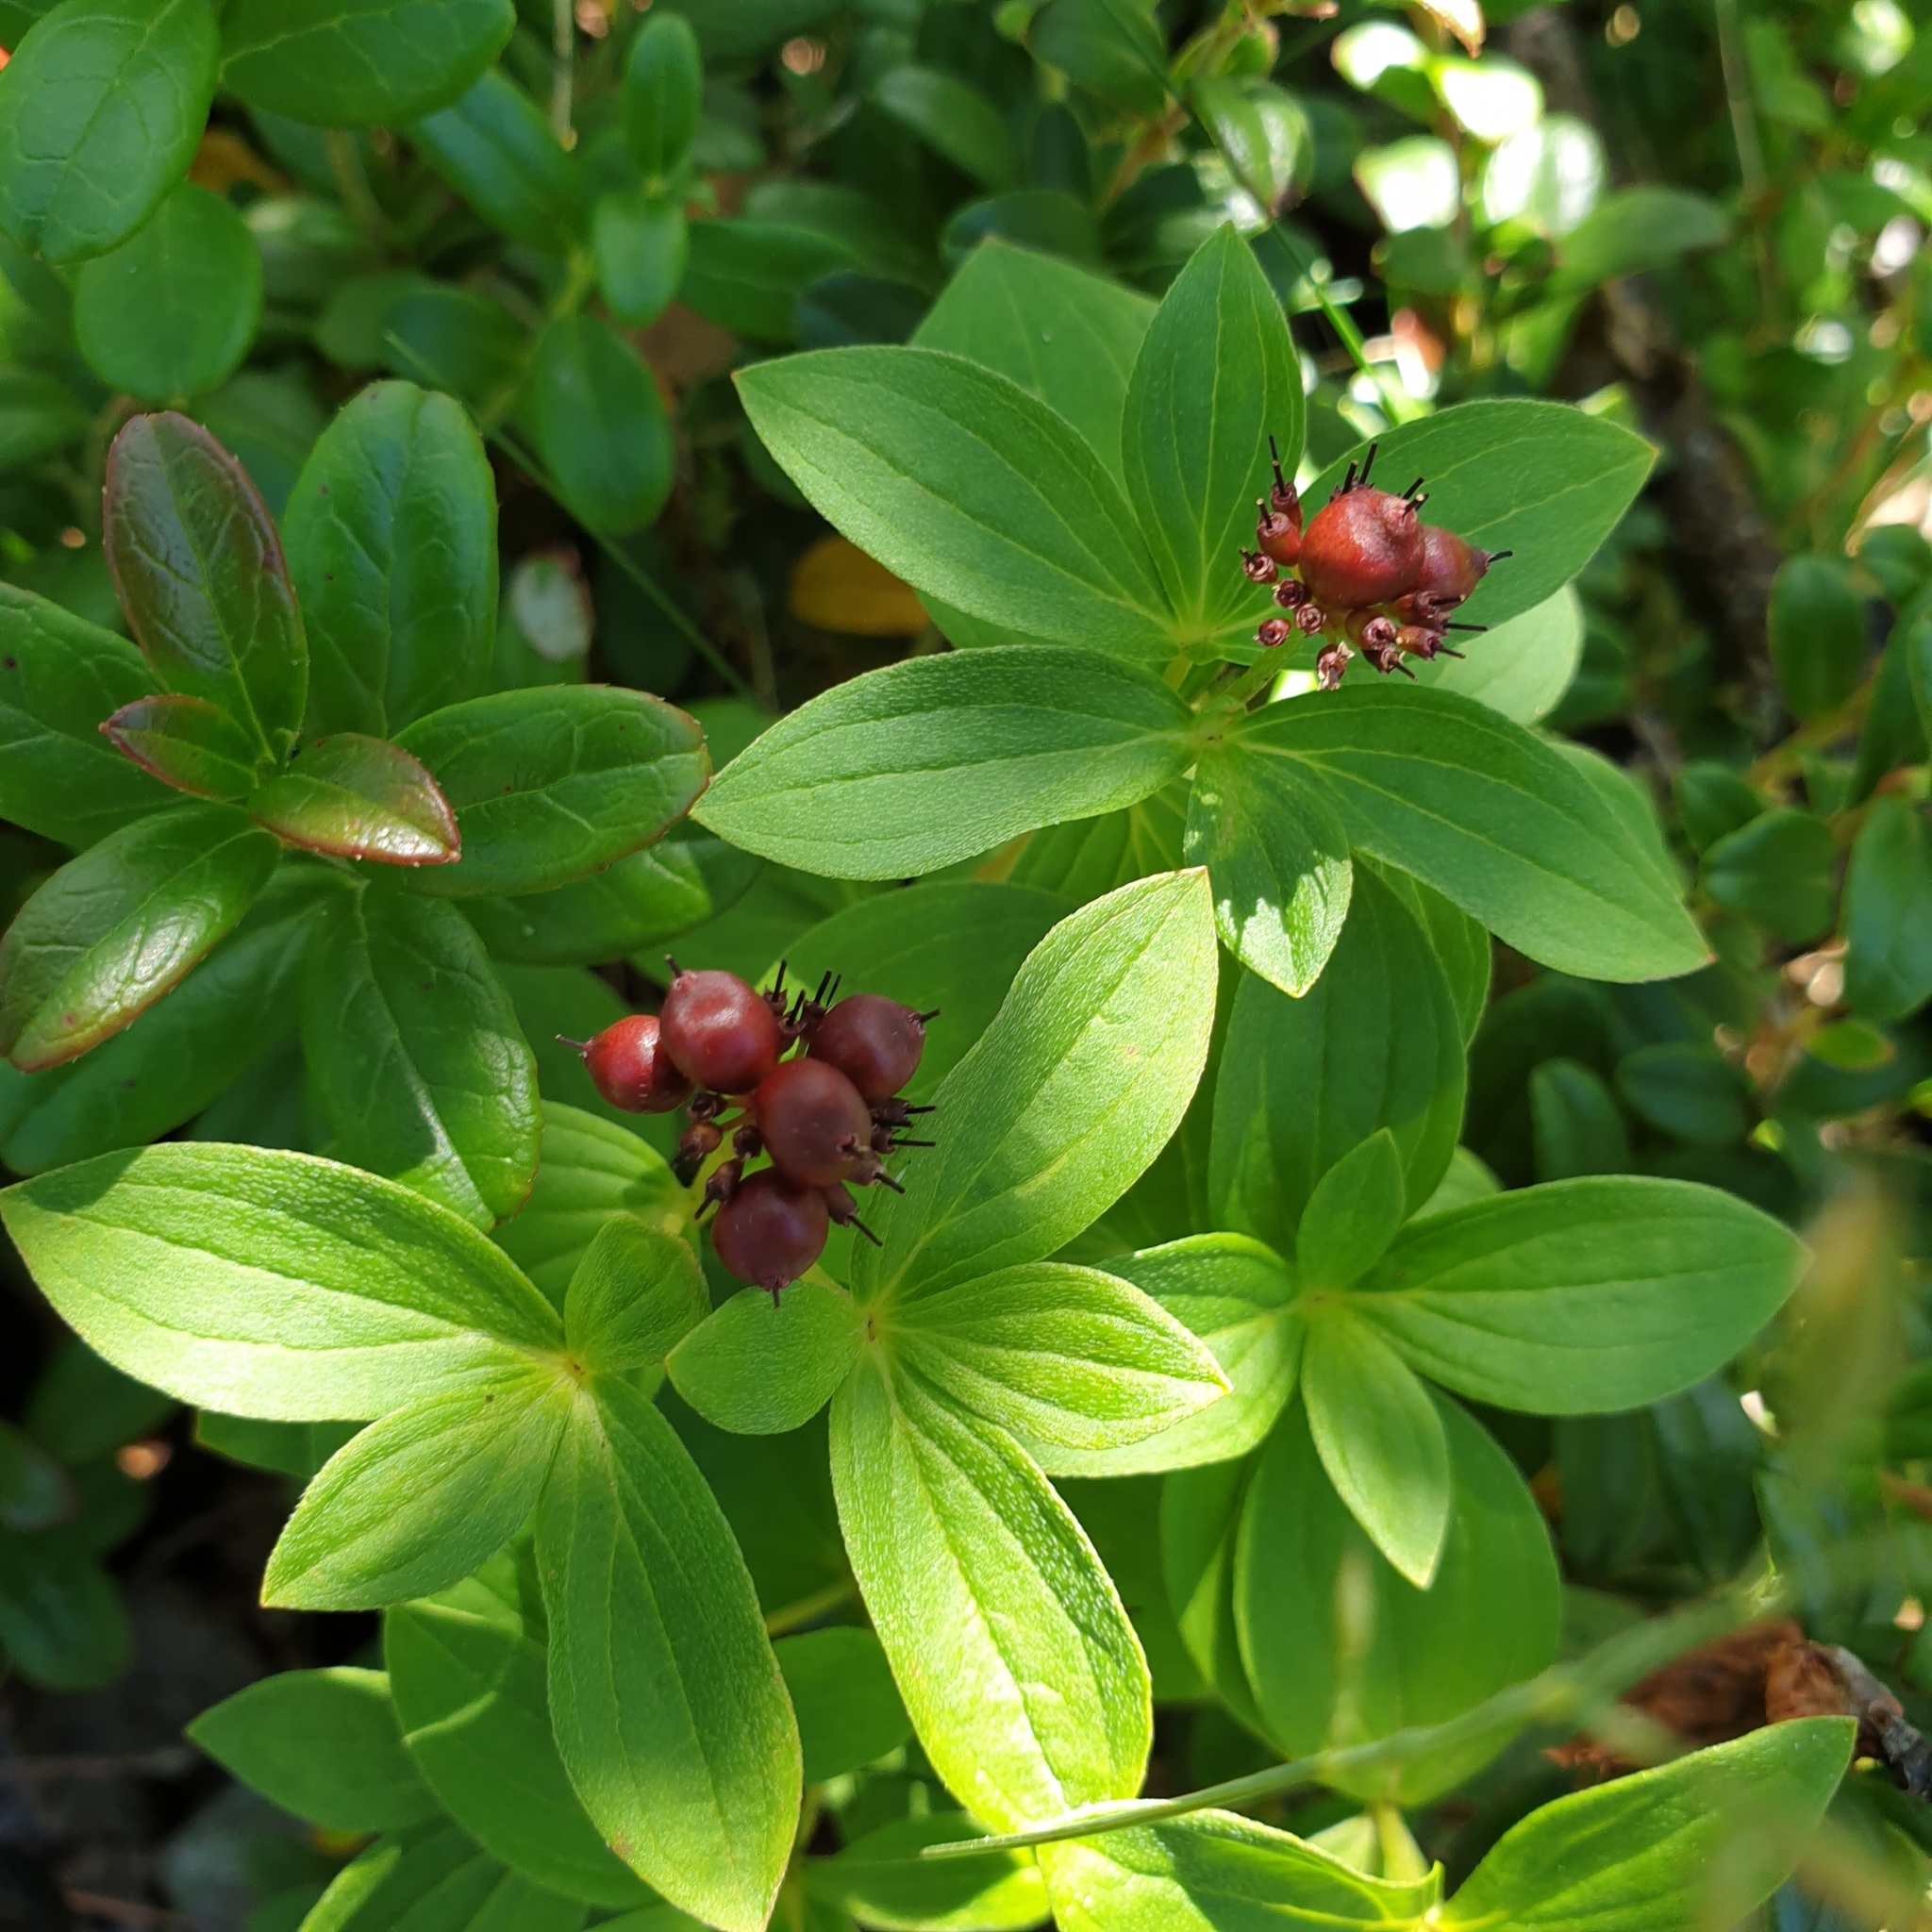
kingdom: Plantae
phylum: Tracheophyta
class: Magnoliopsida
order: Cornales
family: Cornaceae
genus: Cornus
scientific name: Cornus suecica
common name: Dwarf cornel
